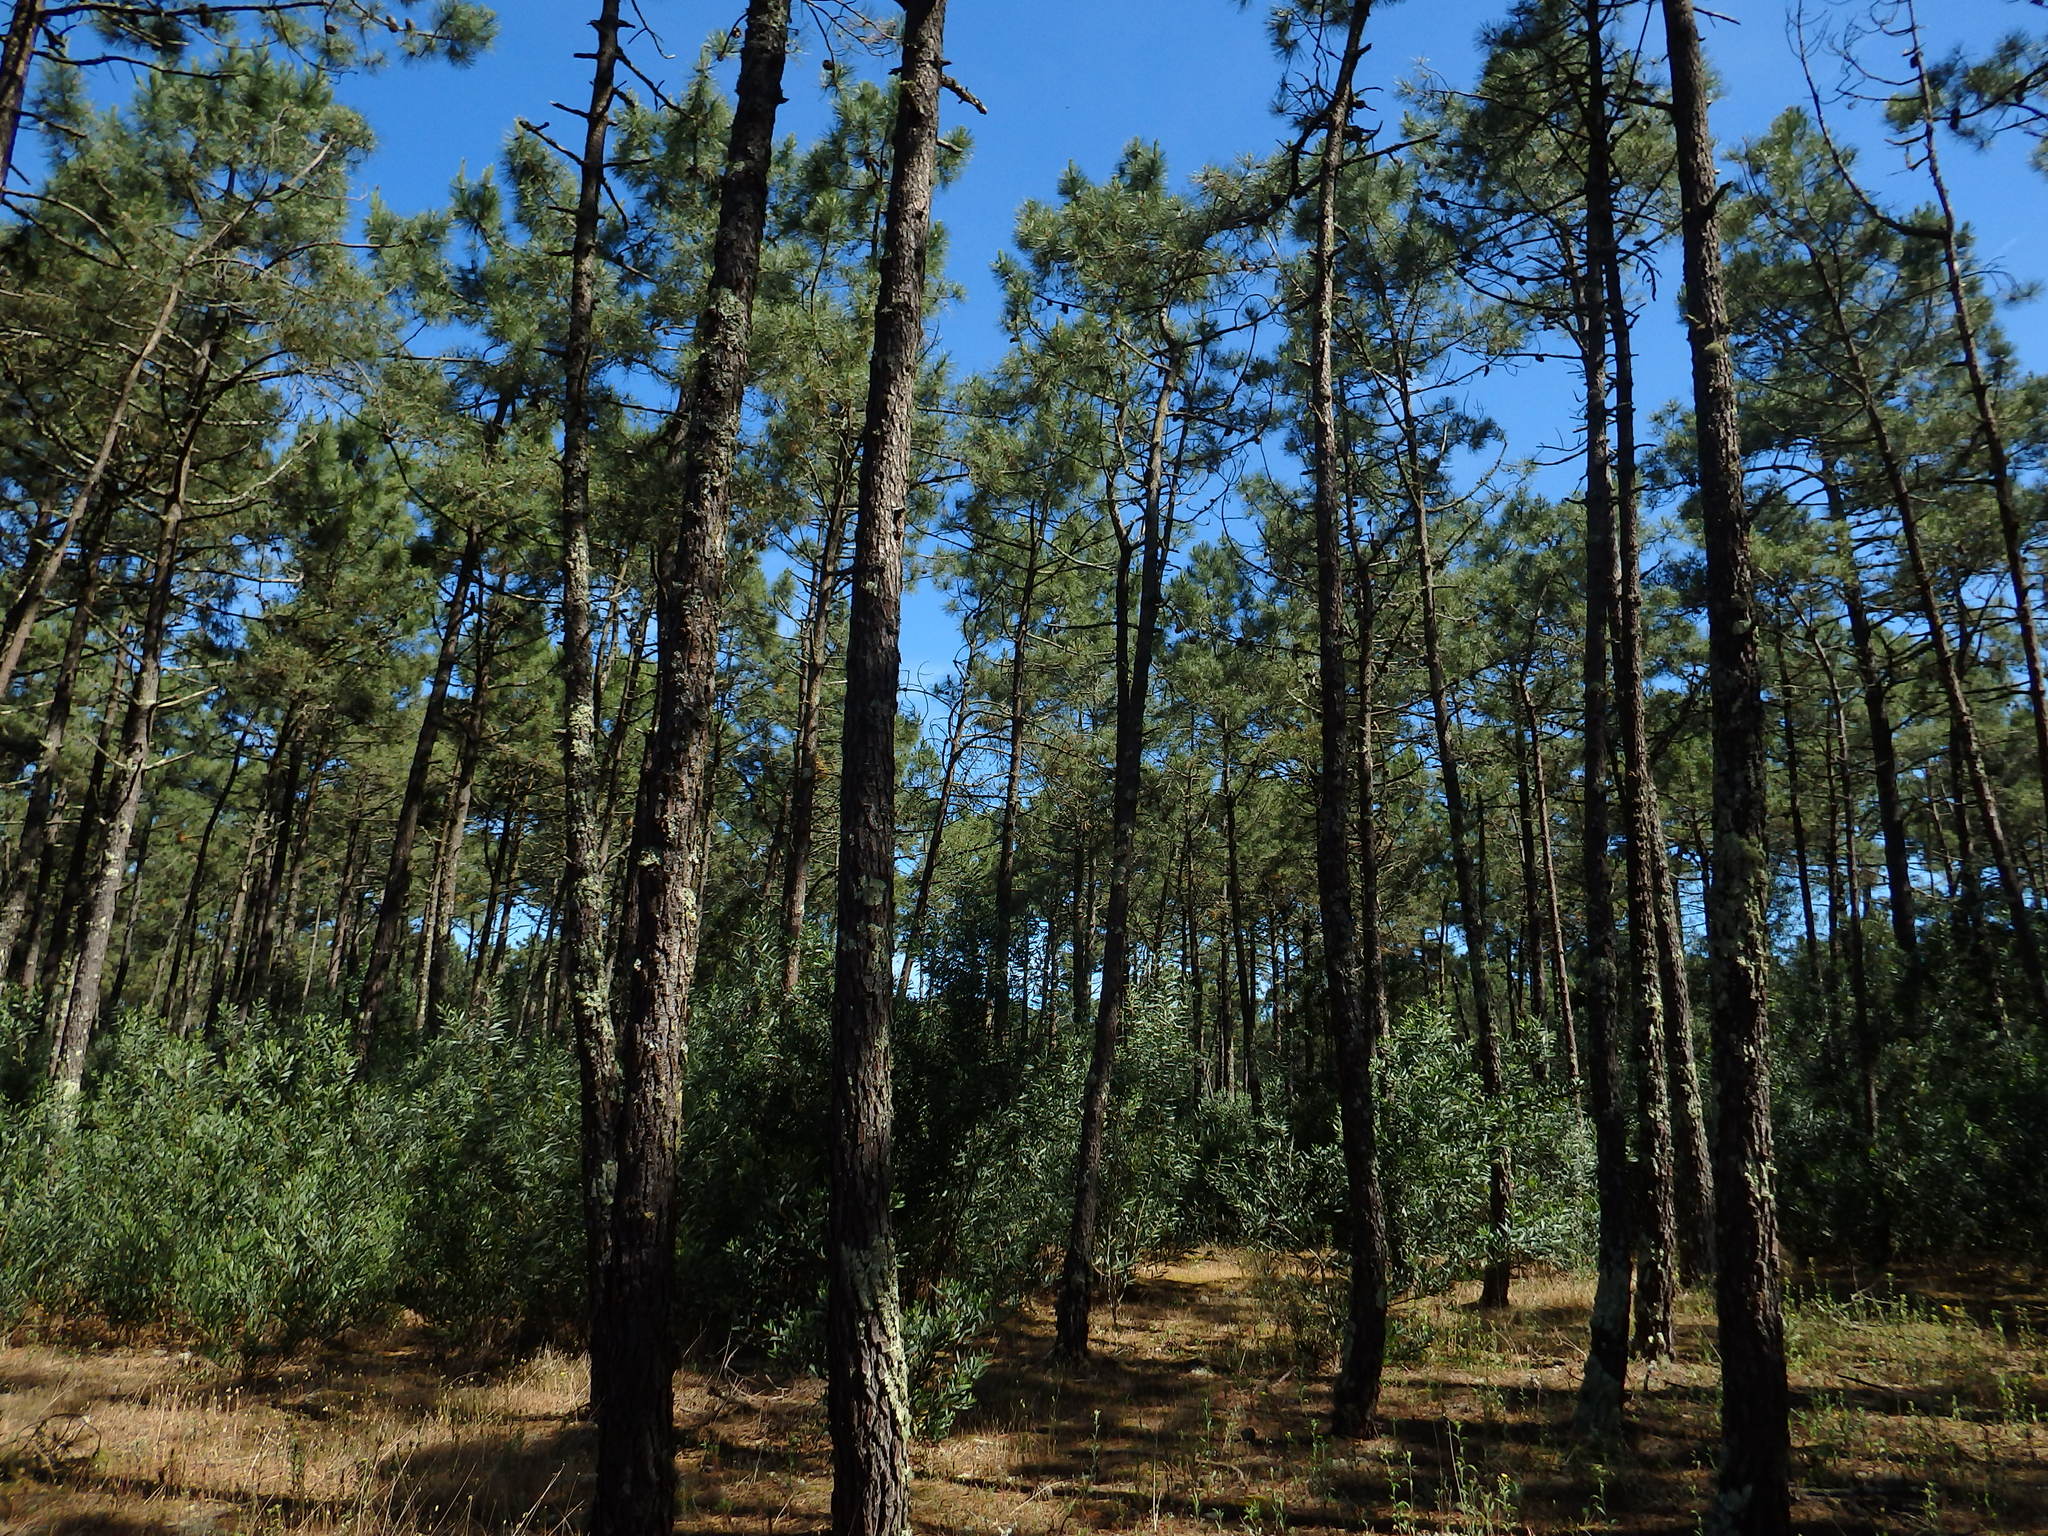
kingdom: Plantae
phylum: Tracheophyta
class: Pinopsida
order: Pinales
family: Pinaceae
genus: Pinus
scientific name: Pinus pinaster
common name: Maritime pine
